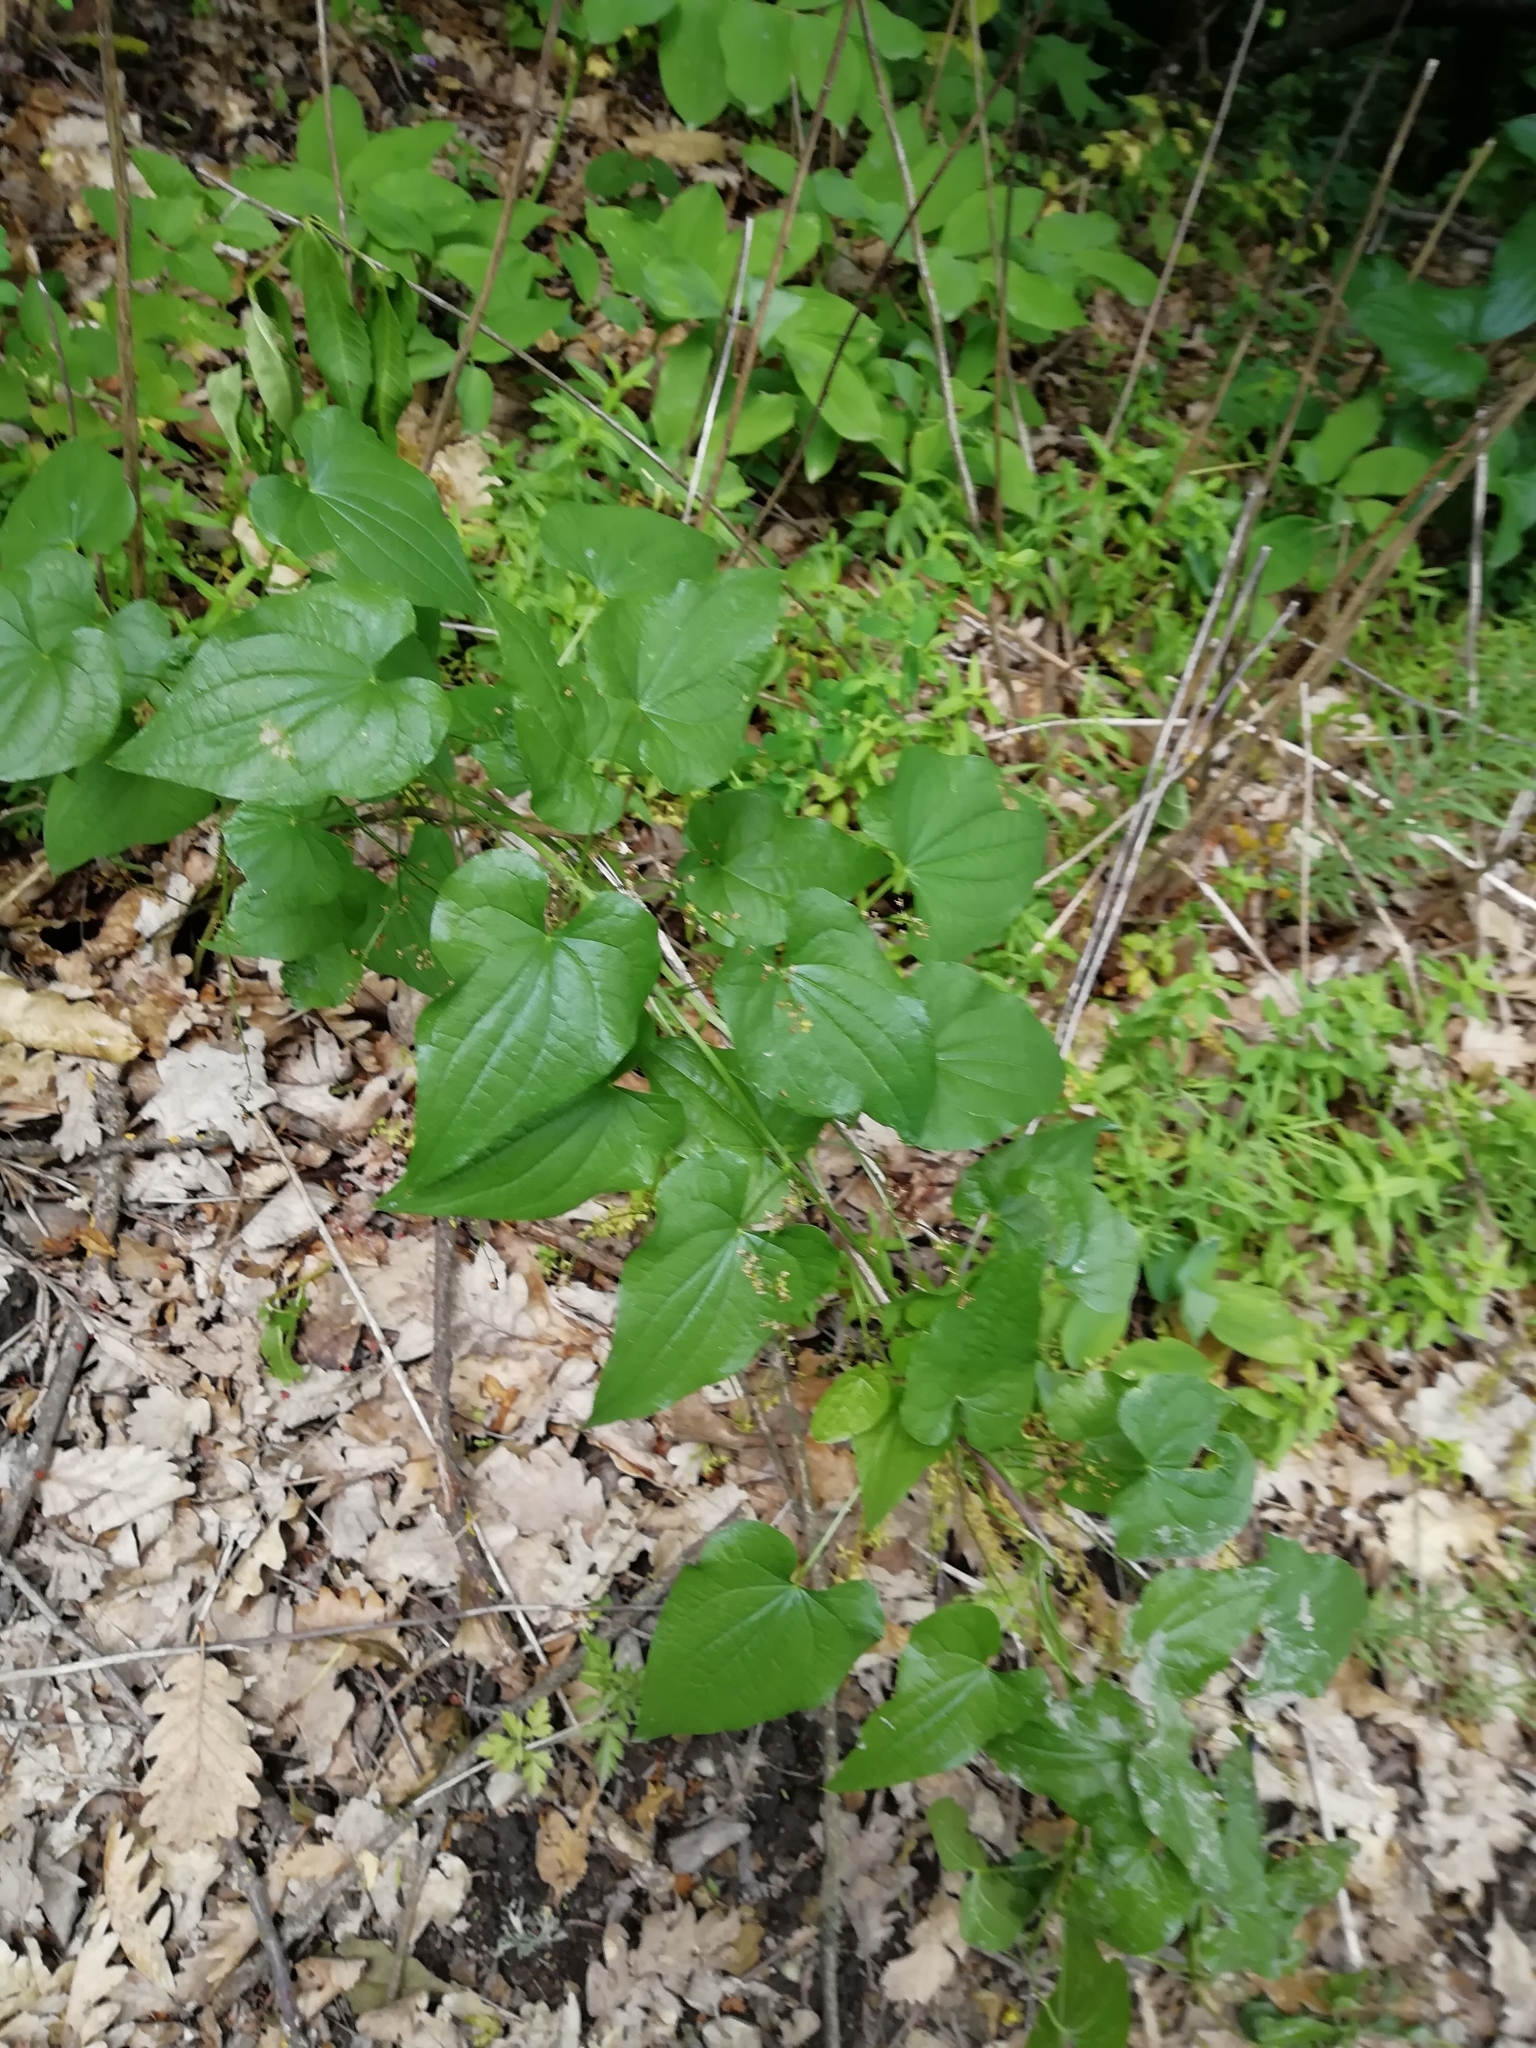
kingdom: Plantae
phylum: Tracheophyta
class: Liliopsida
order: Dioscoreales
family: Dioscoreaceae
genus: Dioscorea
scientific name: Dioscorea communis
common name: Black-bindweed
